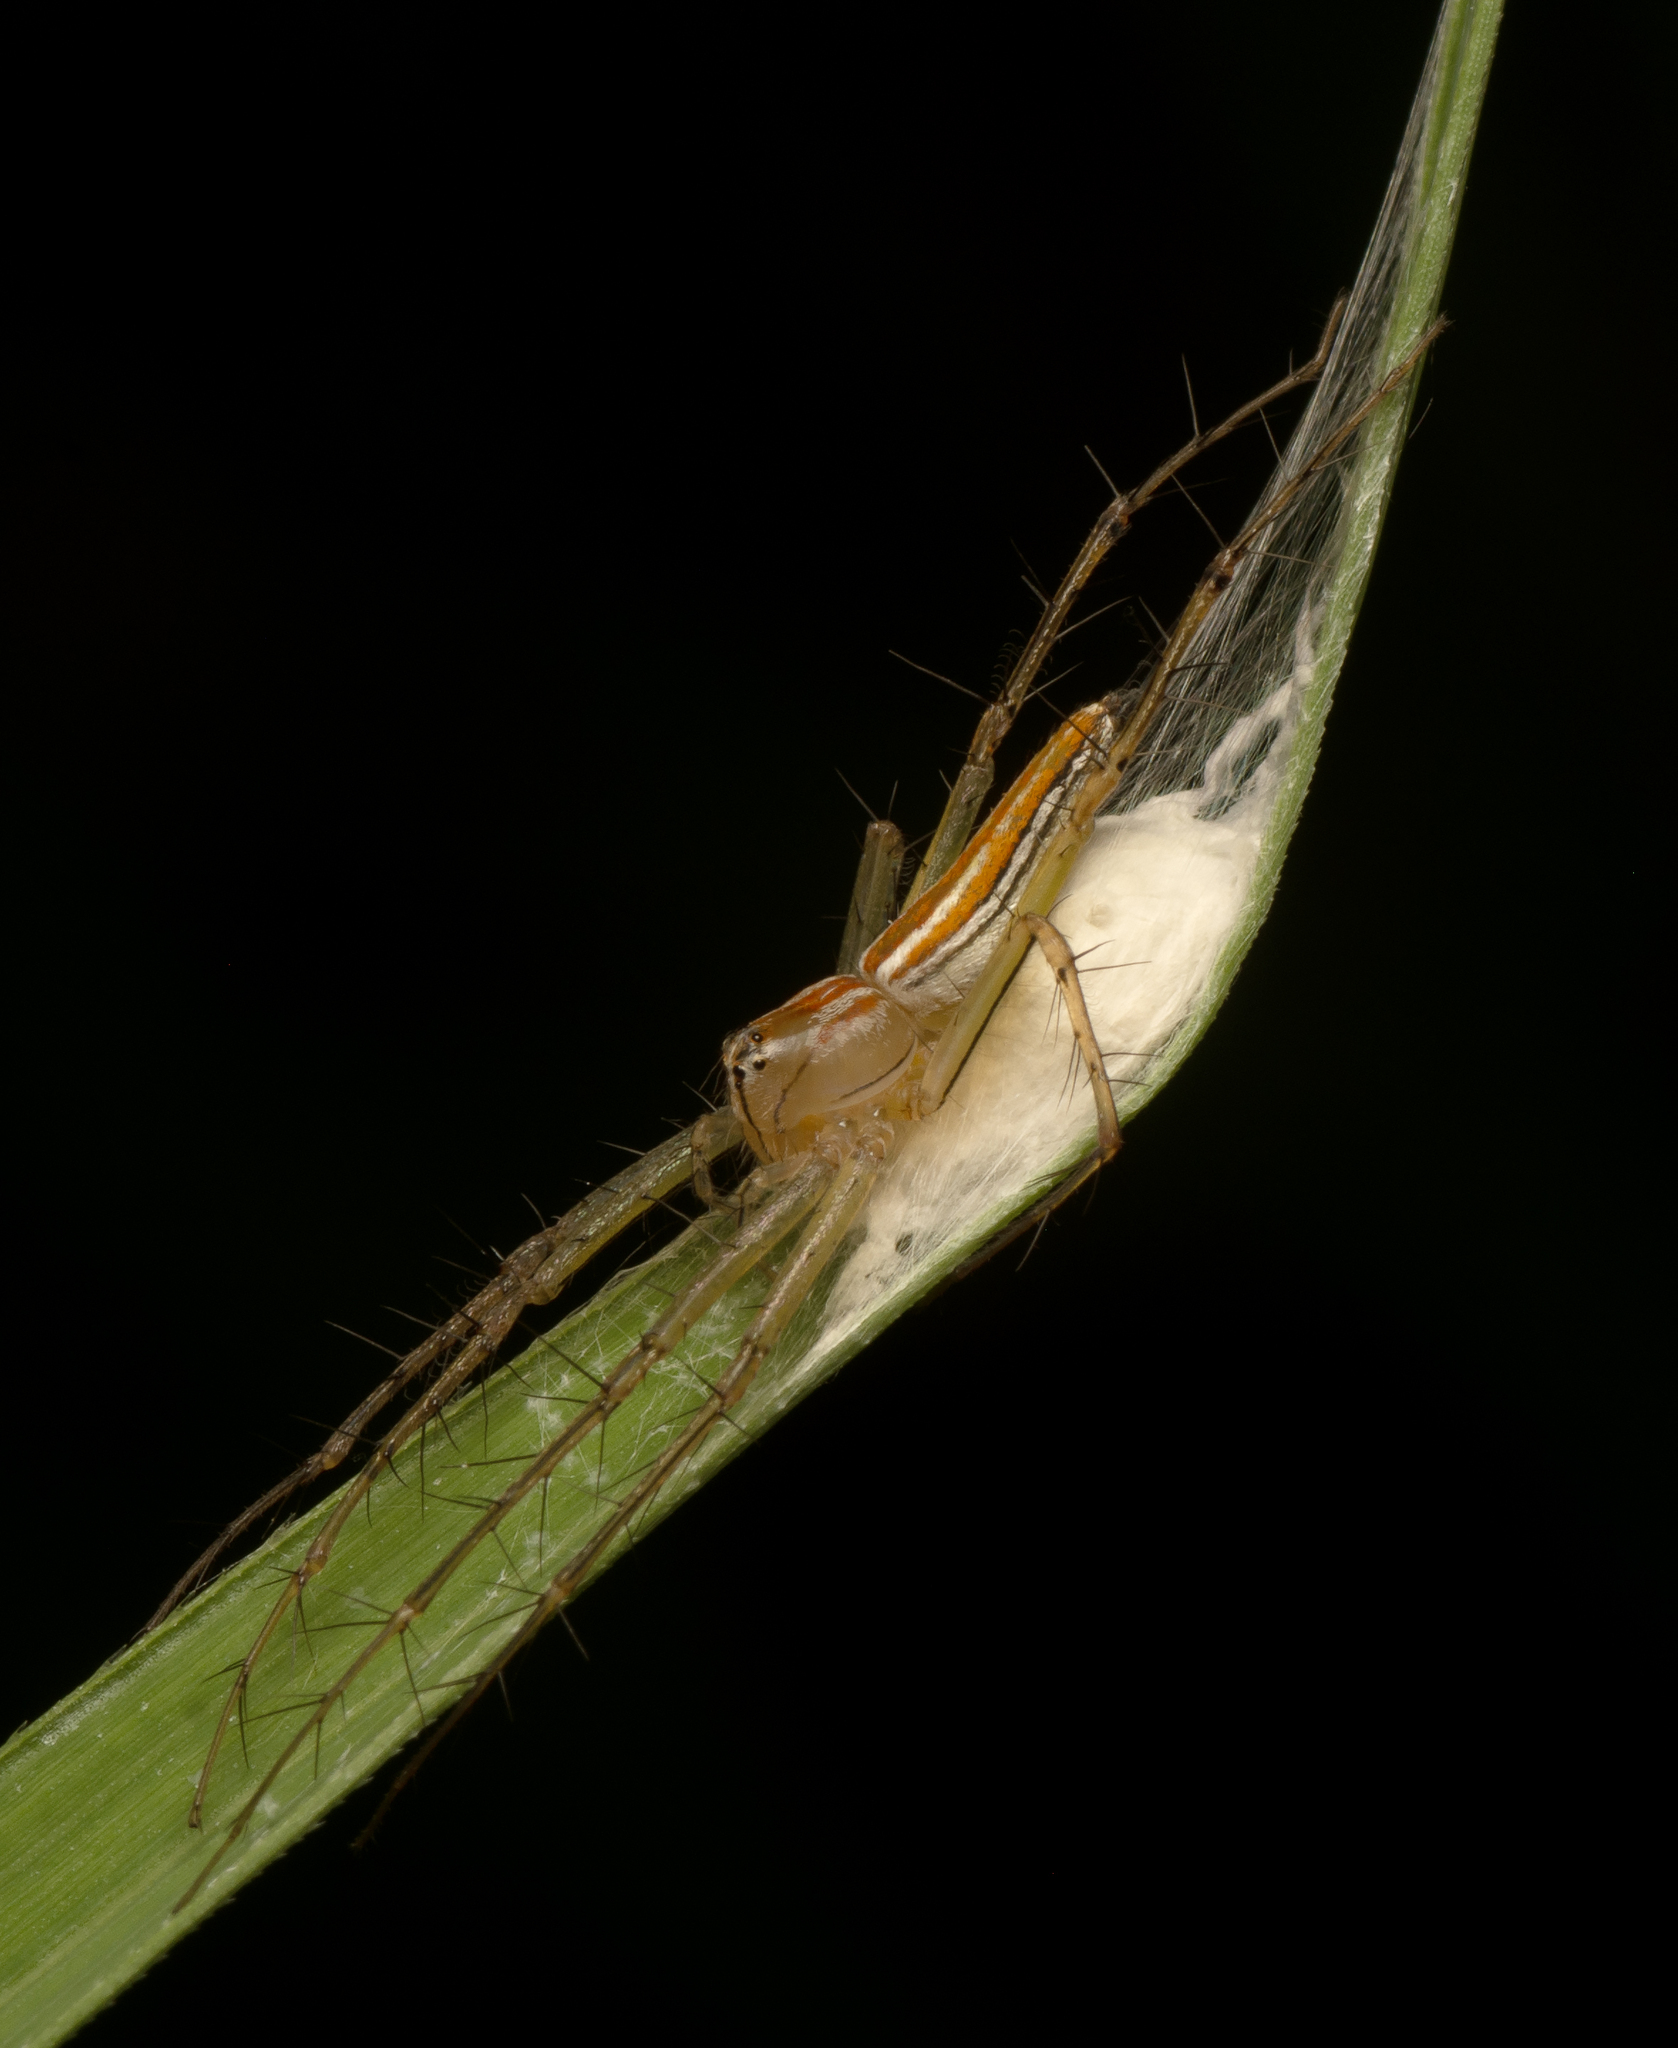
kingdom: Animalia
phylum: Arthropoda
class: Arachnida
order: Araneae
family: Oxyopidae
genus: Oxyopes
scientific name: Oxyopes macilentus
